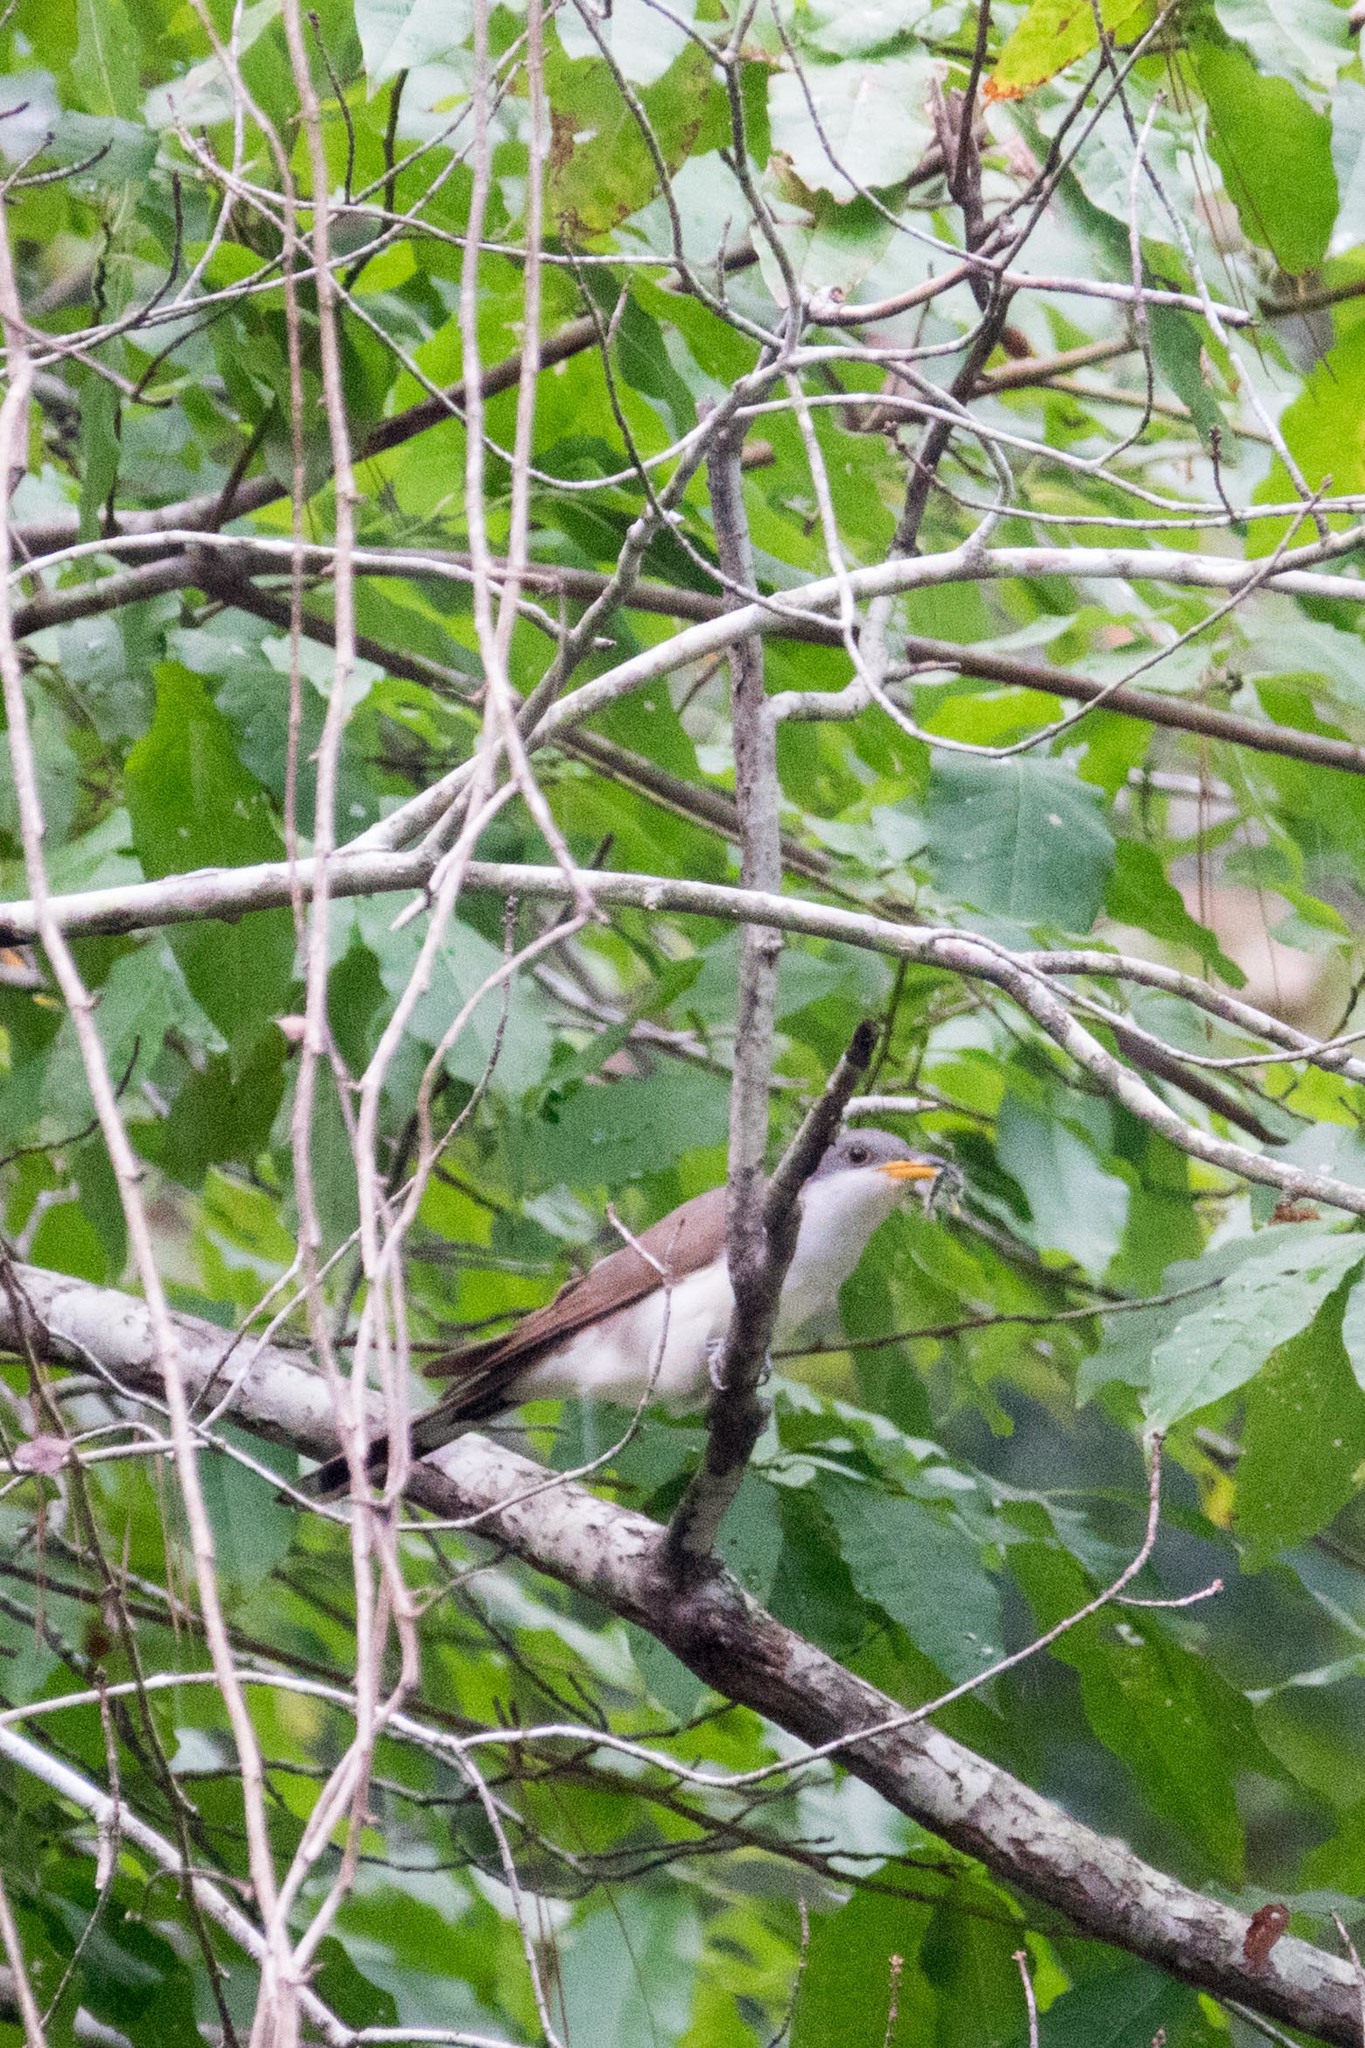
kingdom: Animalia
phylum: Chordata
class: Aves
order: Cuculiformes
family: Cuculidae
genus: Coccyzus
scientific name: Coccyzus americanus
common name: Yellow-billed cuckoo
